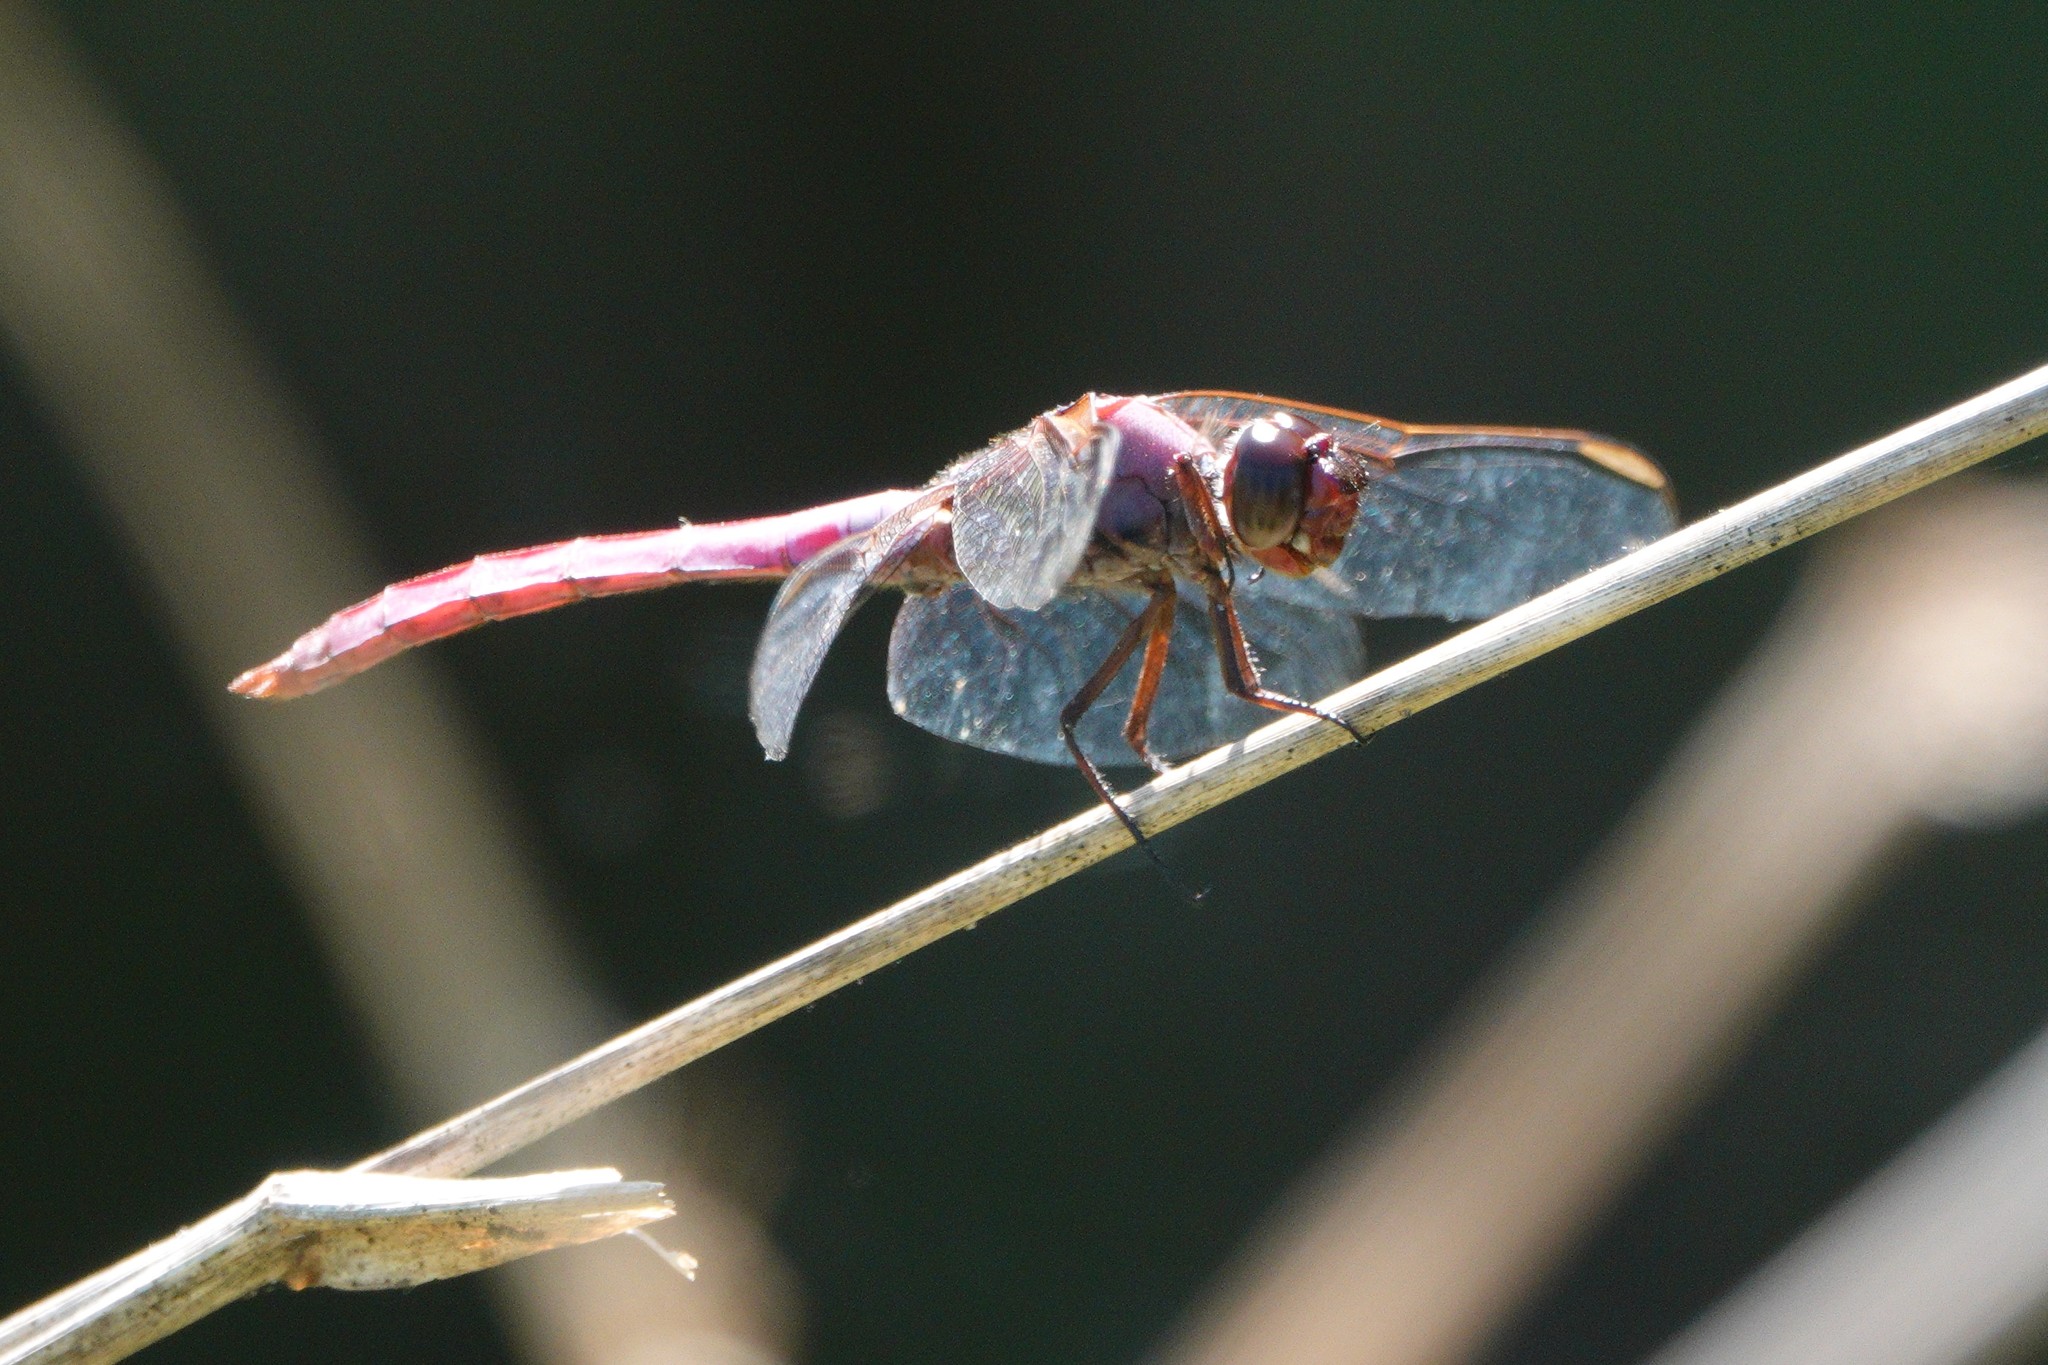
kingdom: Animalia
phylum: Arthropoda
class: Insecta
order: Odonata
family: Libellulidae
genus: Orthemis
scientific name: Orthemis ferruginea
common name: Roseate skimmer
